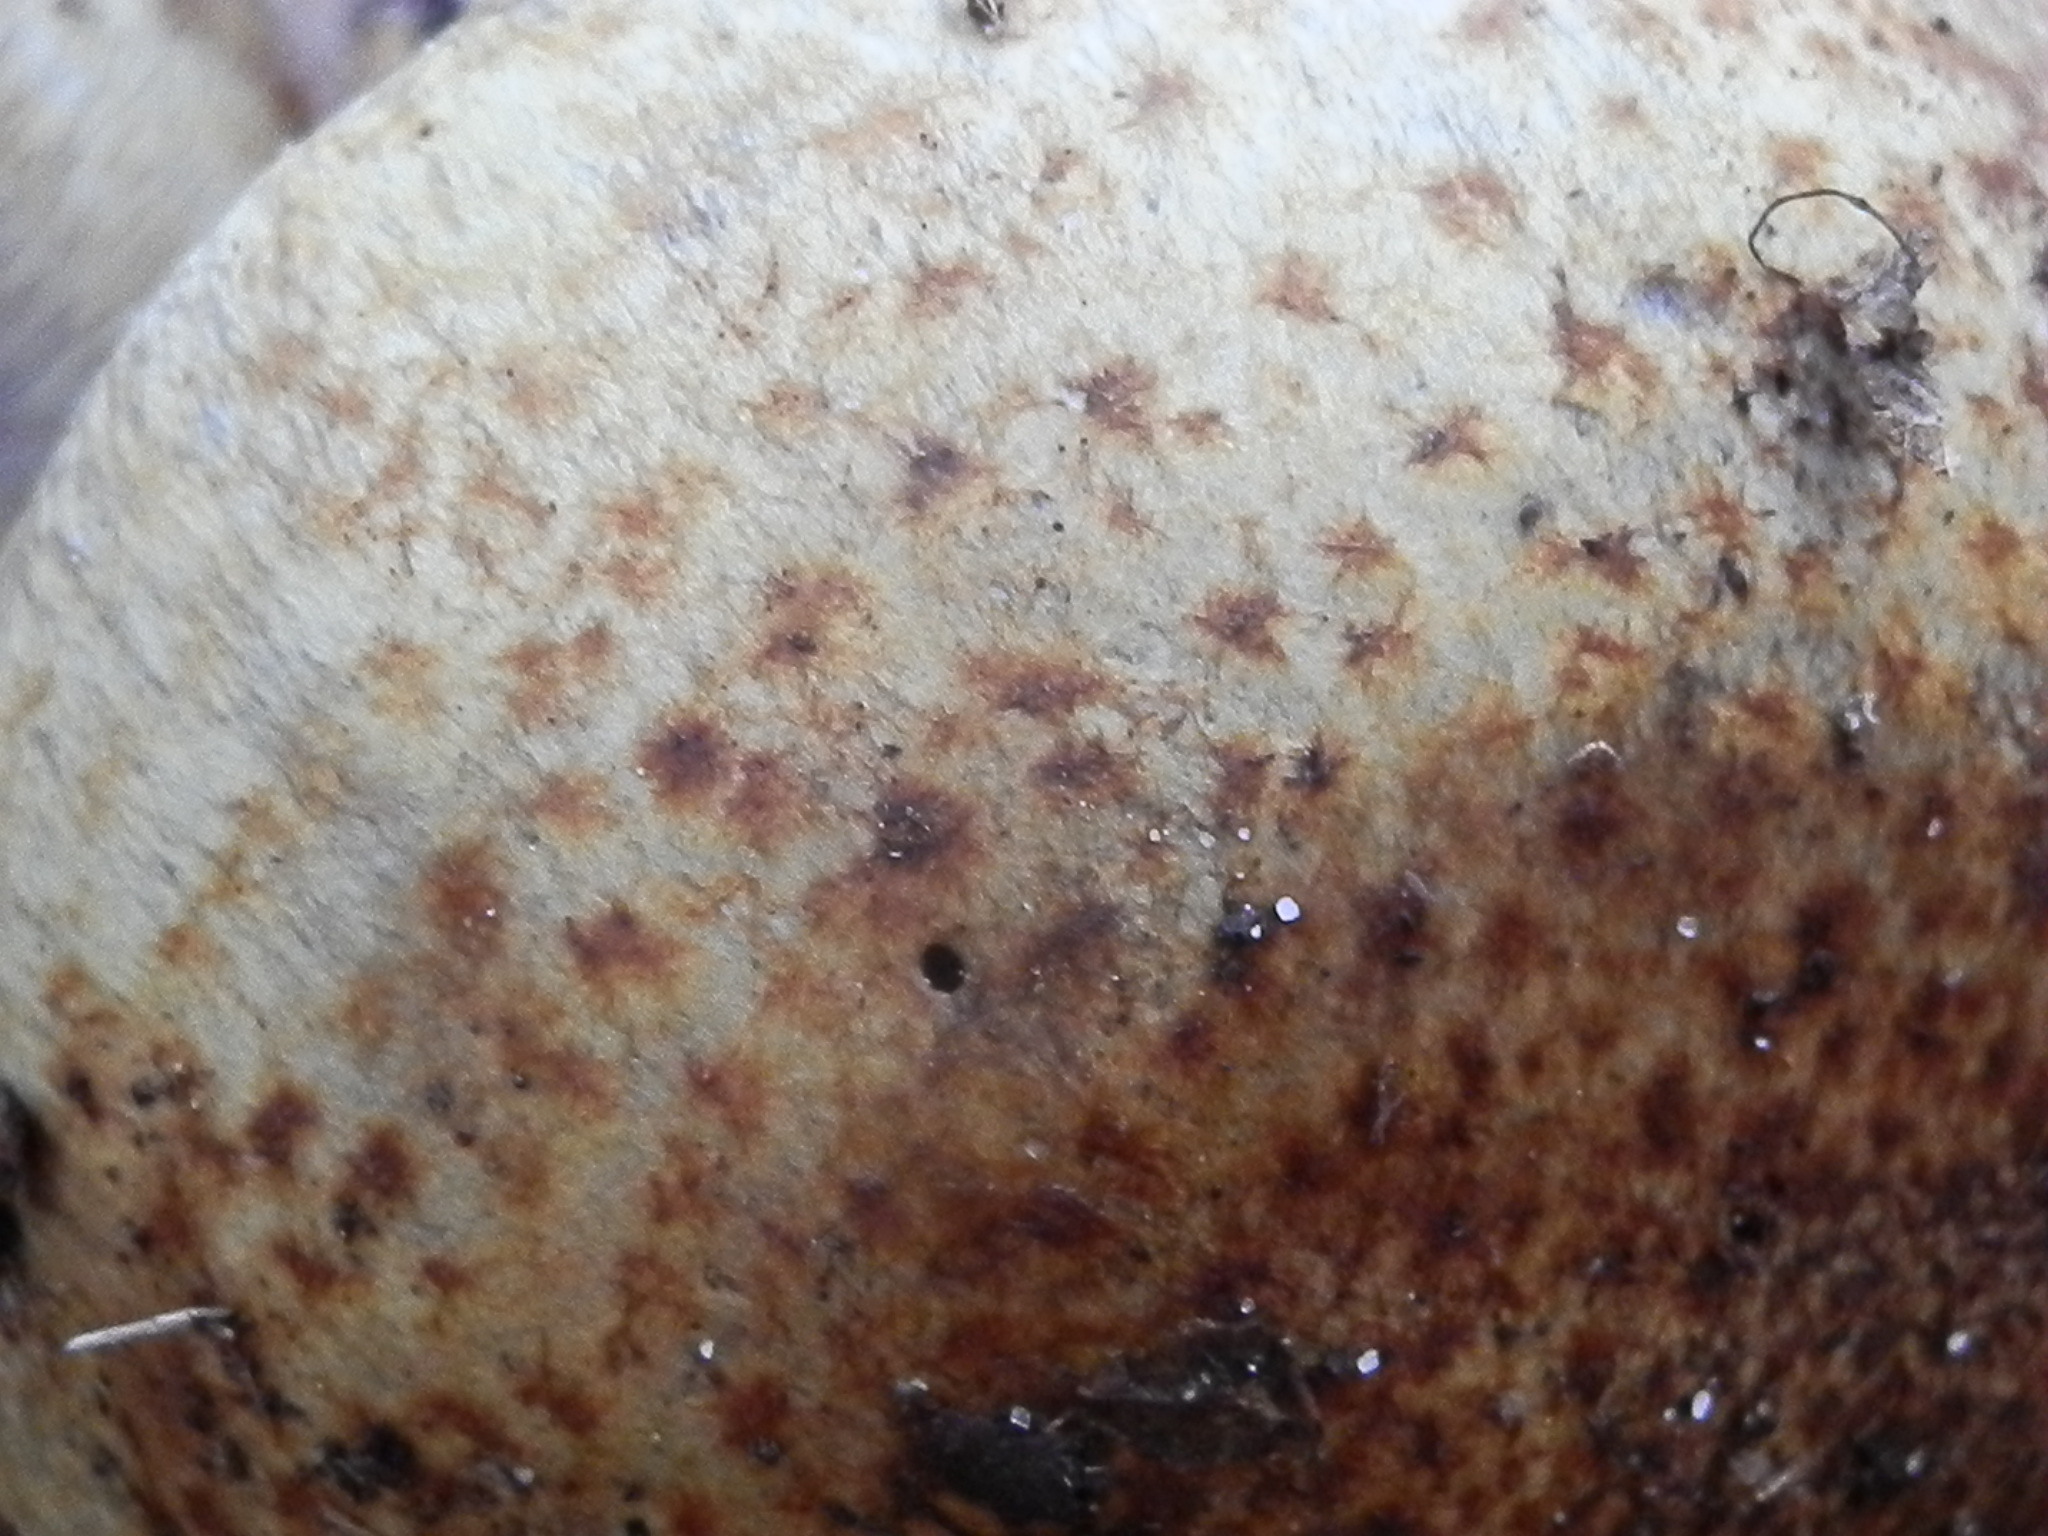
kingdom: Fungi
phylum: Basidiomycota
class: Agaricomycetes
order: Agaricales
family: Cortinariaceae
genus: Phlegmacium
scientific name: Phlegmacium ponderosum
